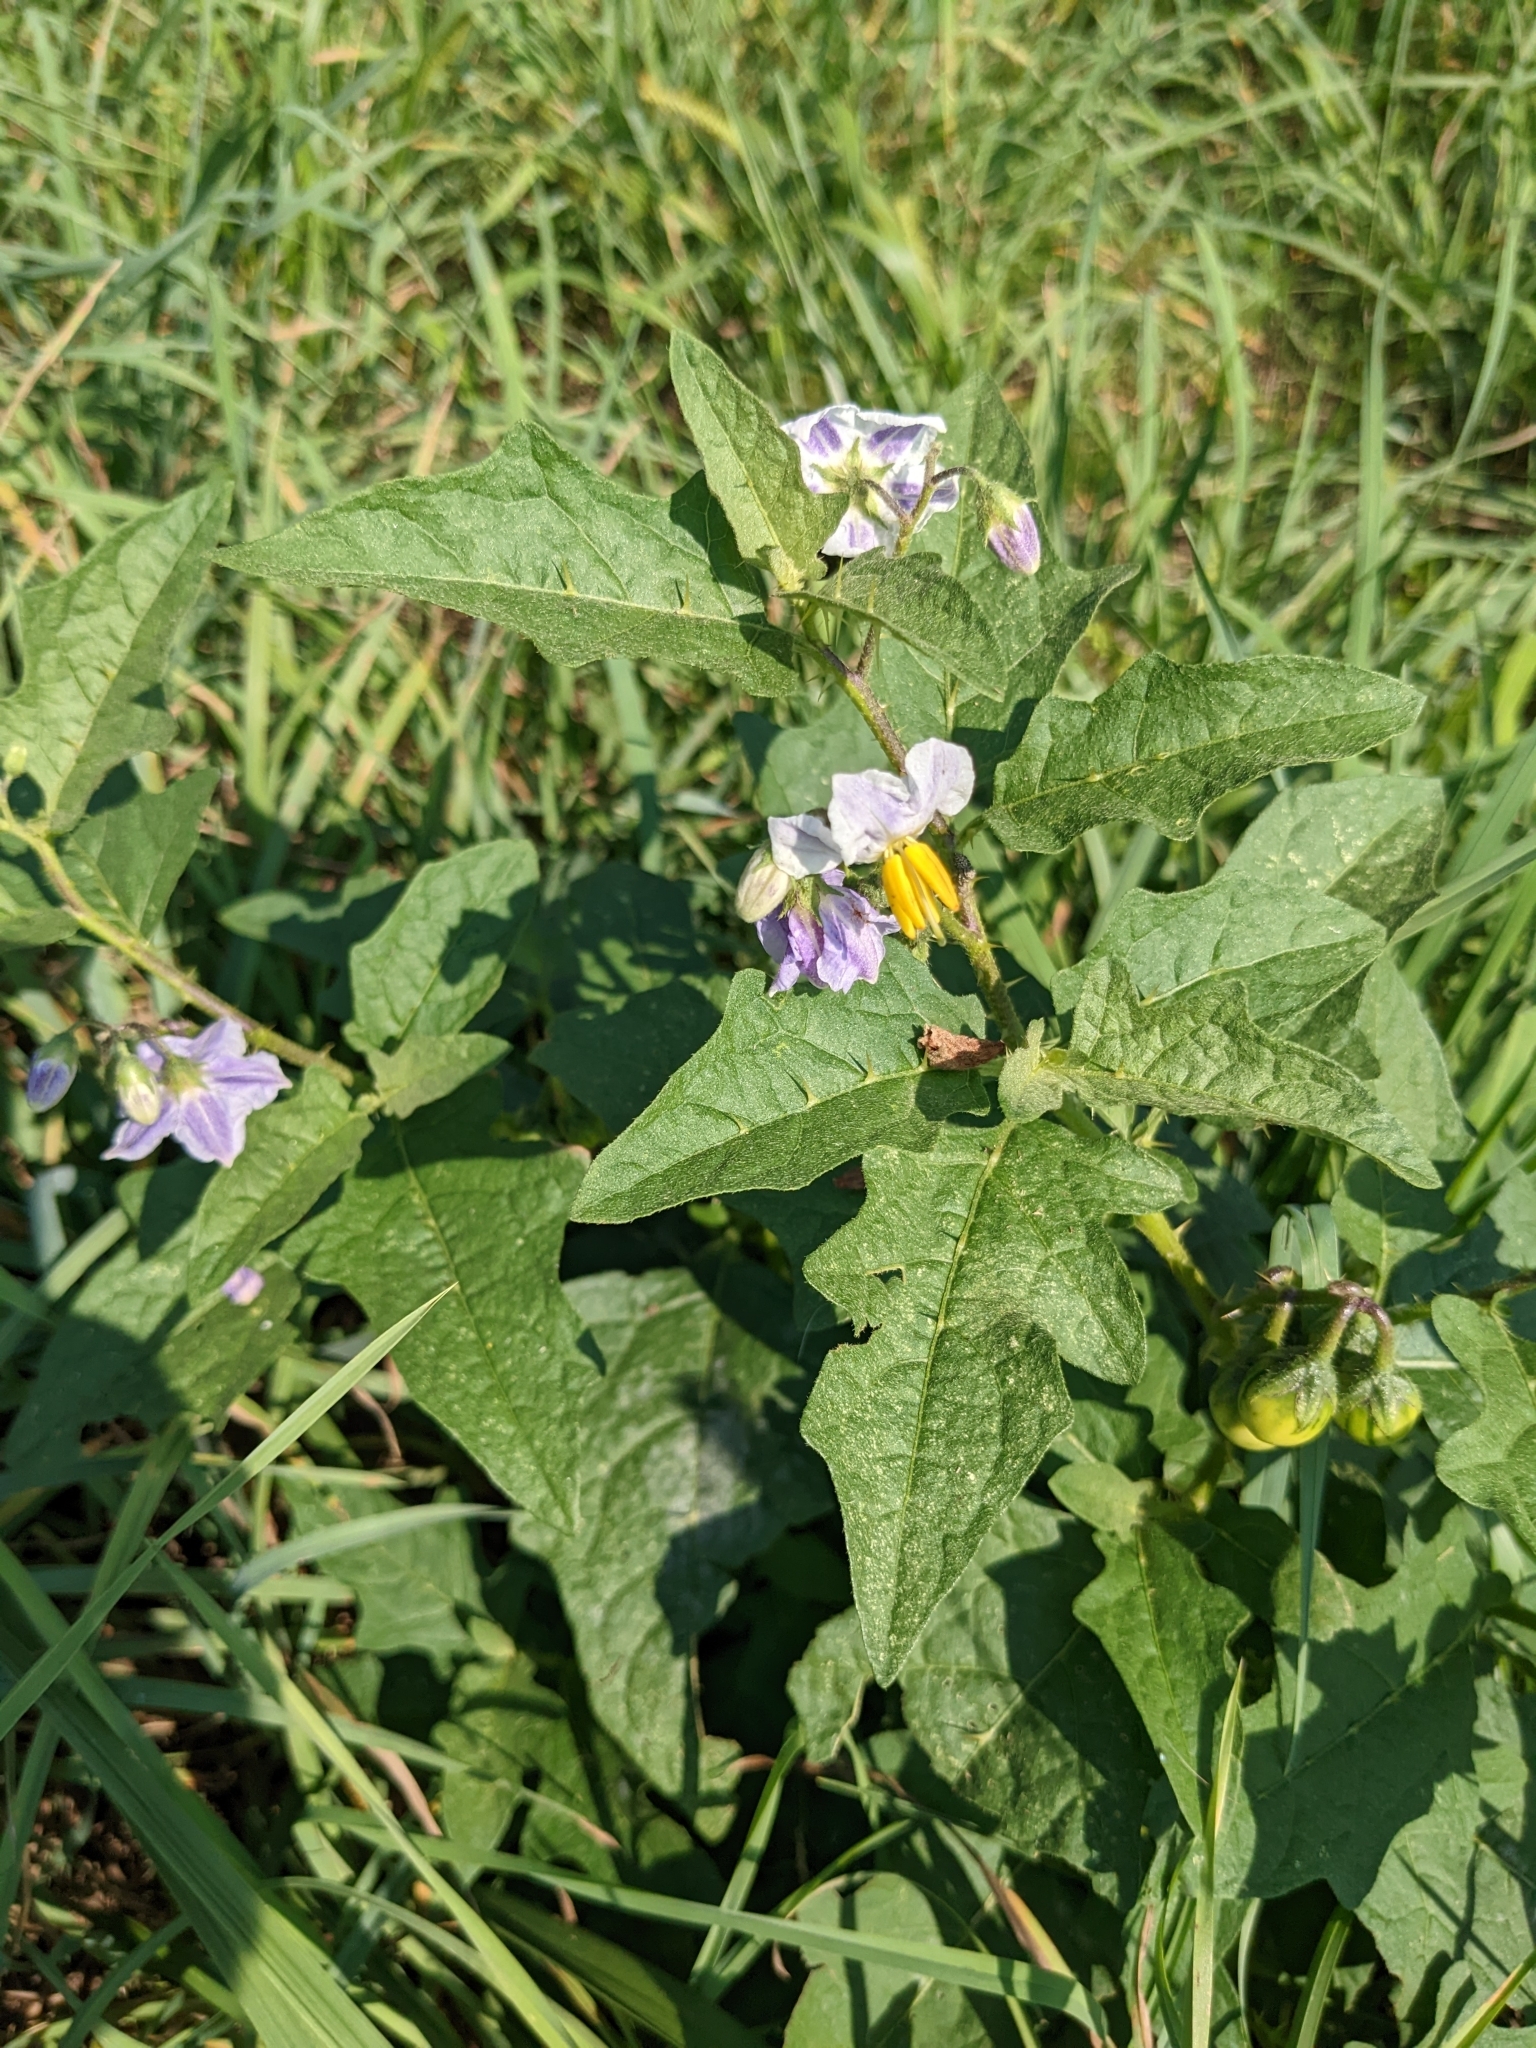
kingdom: Plantae
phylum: Tracheophyta
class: Magnoliopsida
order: Solanales
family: Solanaceae
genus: Solanum
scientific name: Solanum carolinense
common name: Horse-nettle
